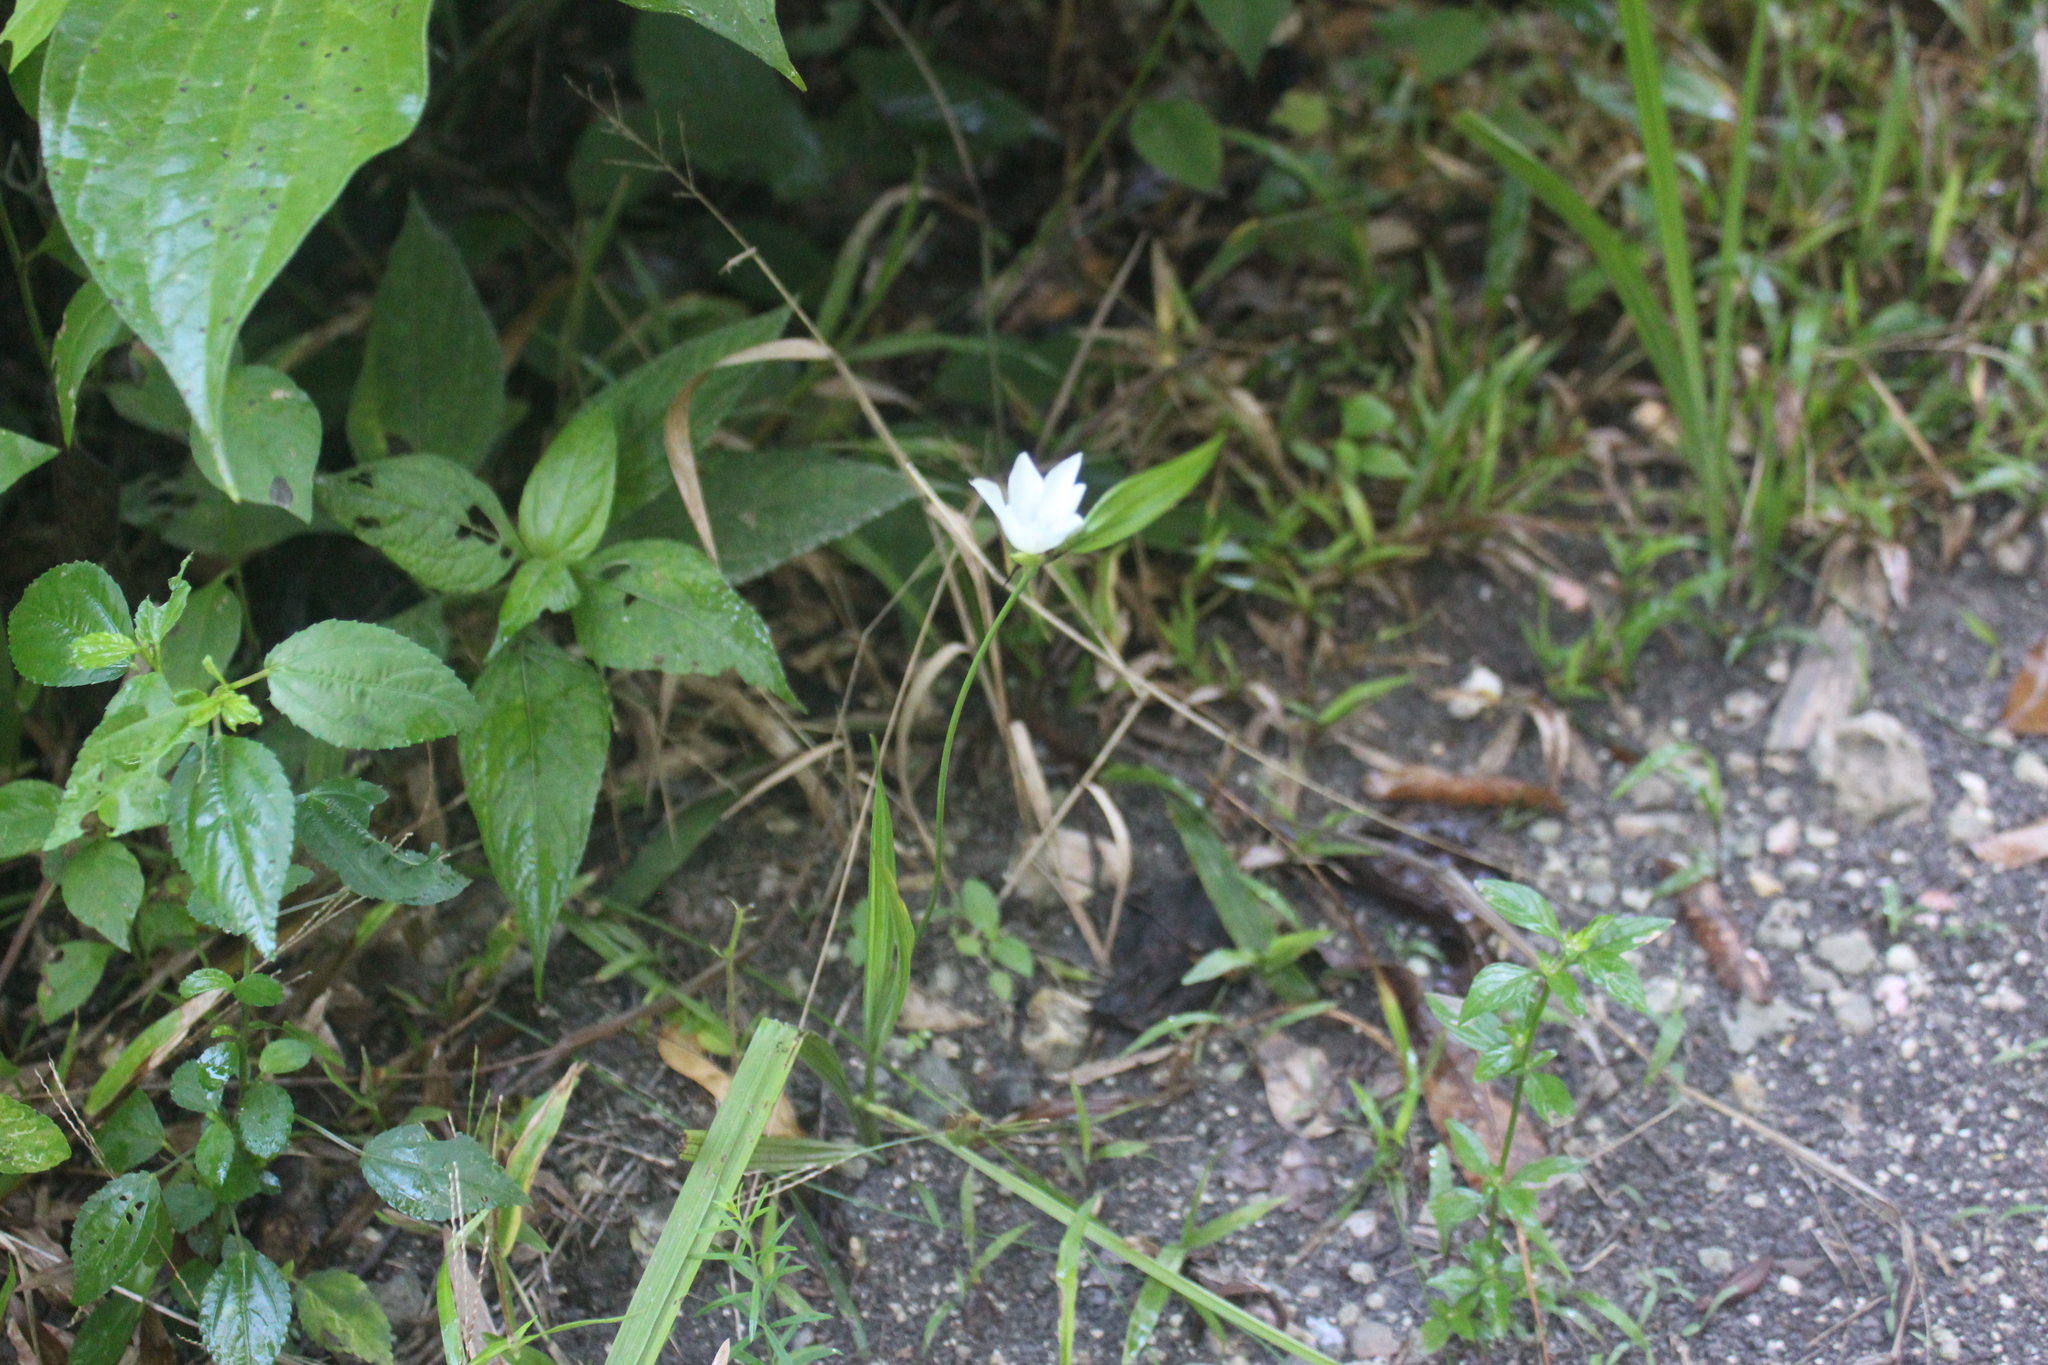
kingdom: Plantae
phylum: Tracheophyta
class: Liliopsida
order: Asparagales
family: Iridaceae
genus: Cipura
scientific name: Cipura campanulata
